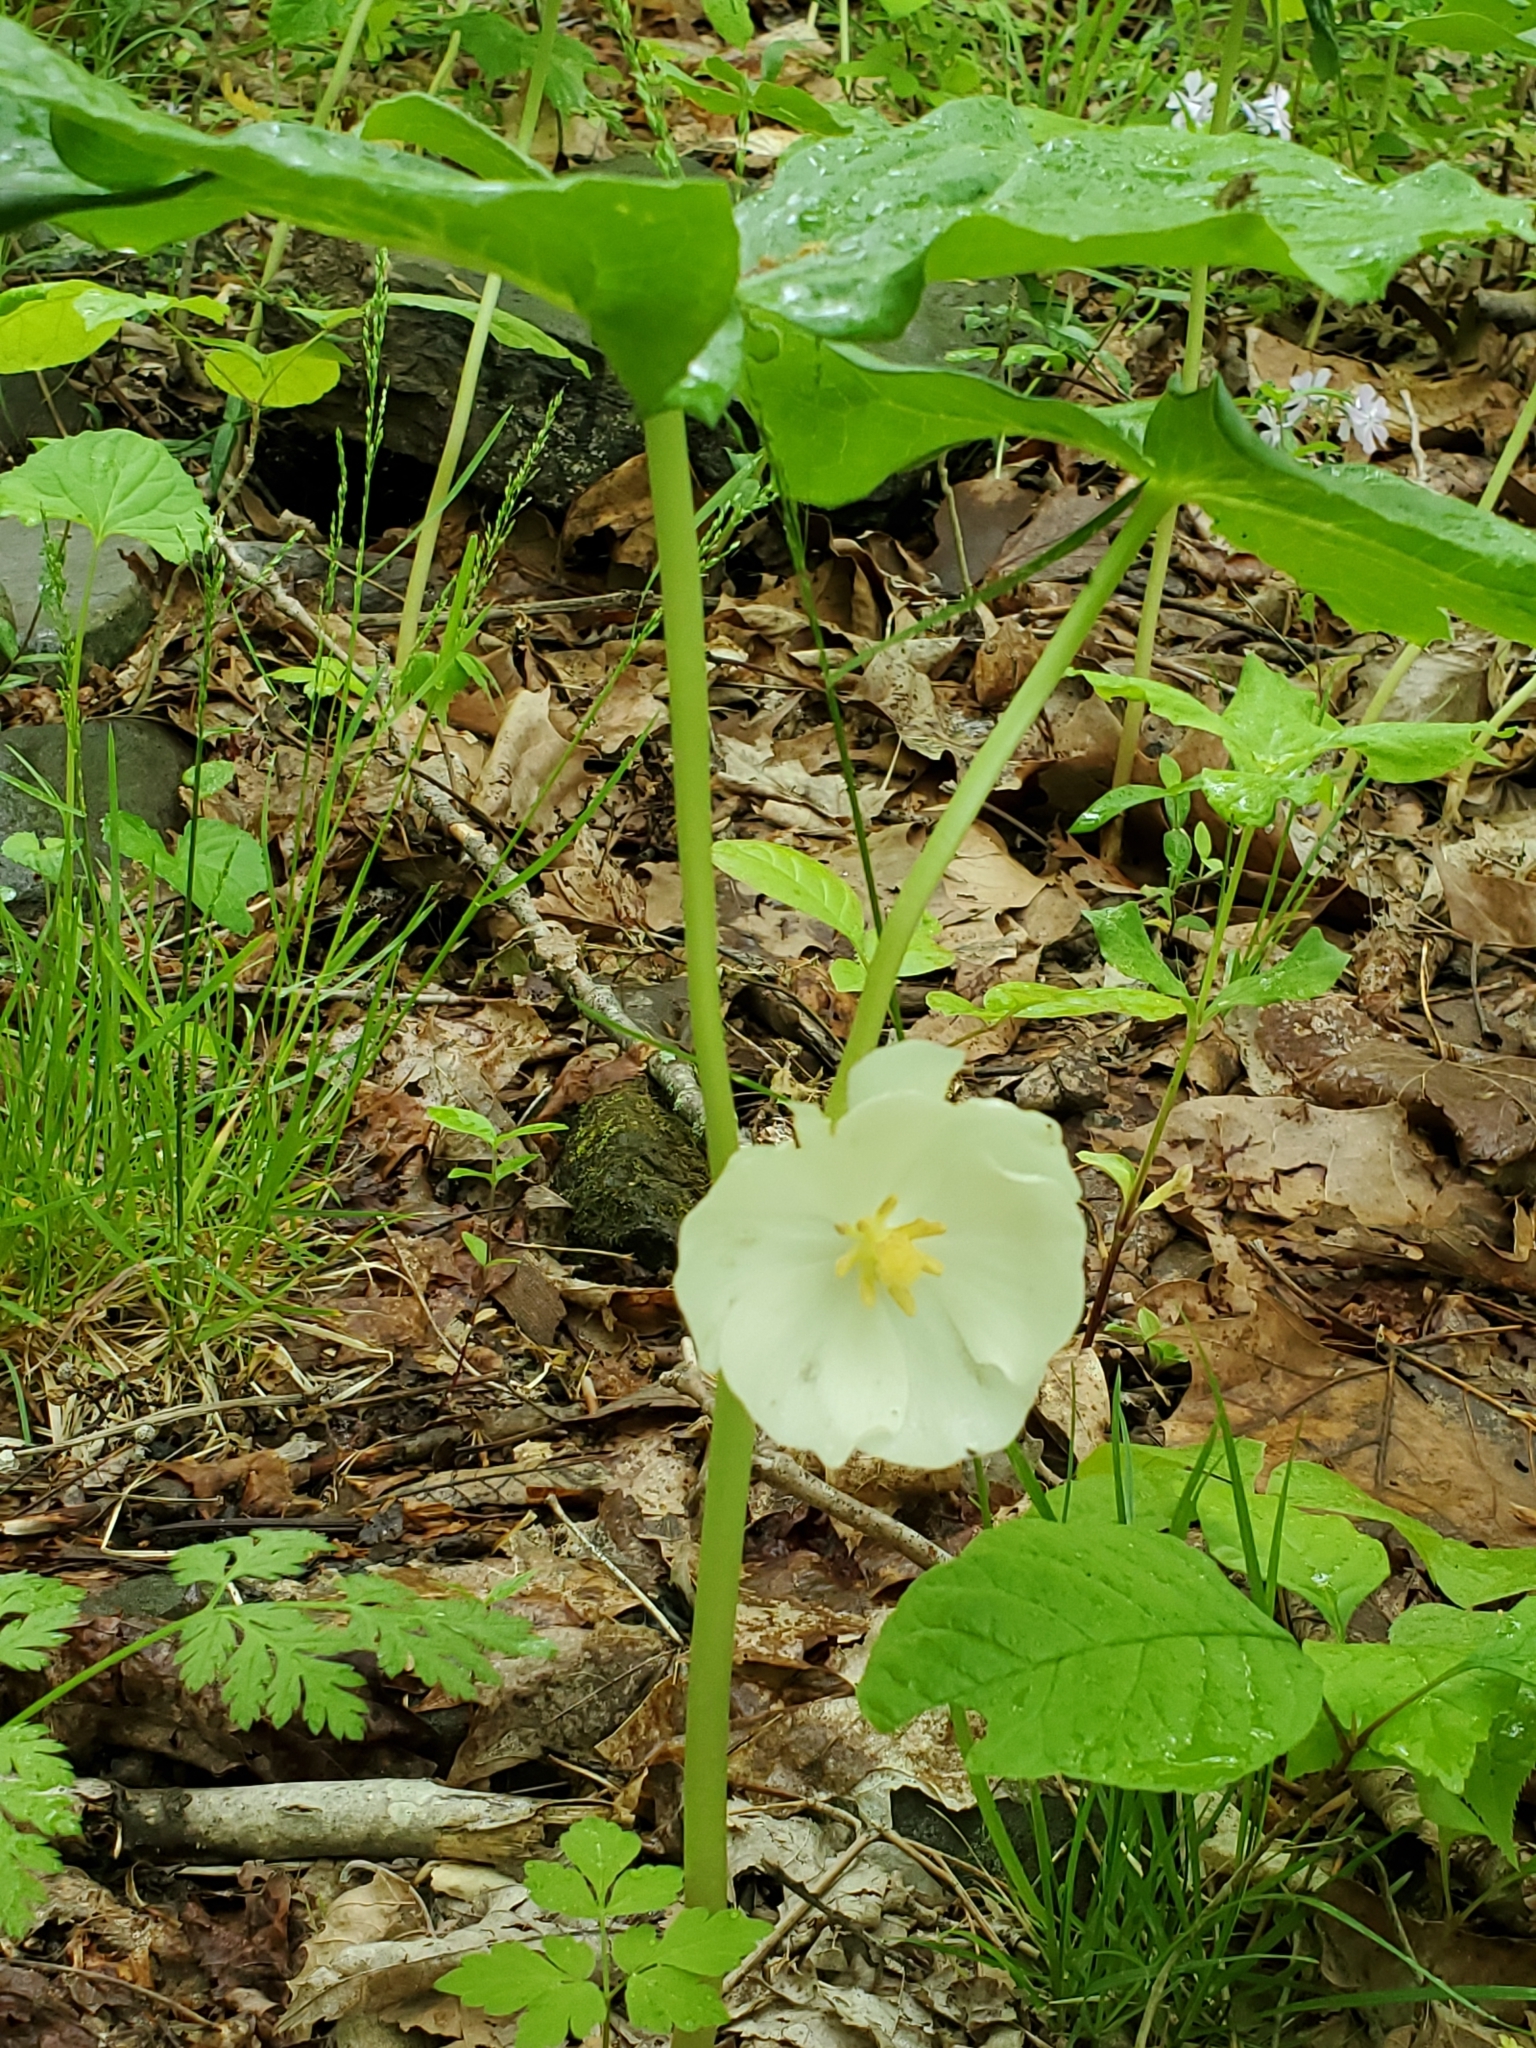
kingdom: Plantae
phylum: Tracheophyta
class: Magnoliopsida
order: Ranunculales
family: Berberidaceae
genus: Podophyllum
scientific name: Podophyllum peltatum
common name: Wild mandrake
